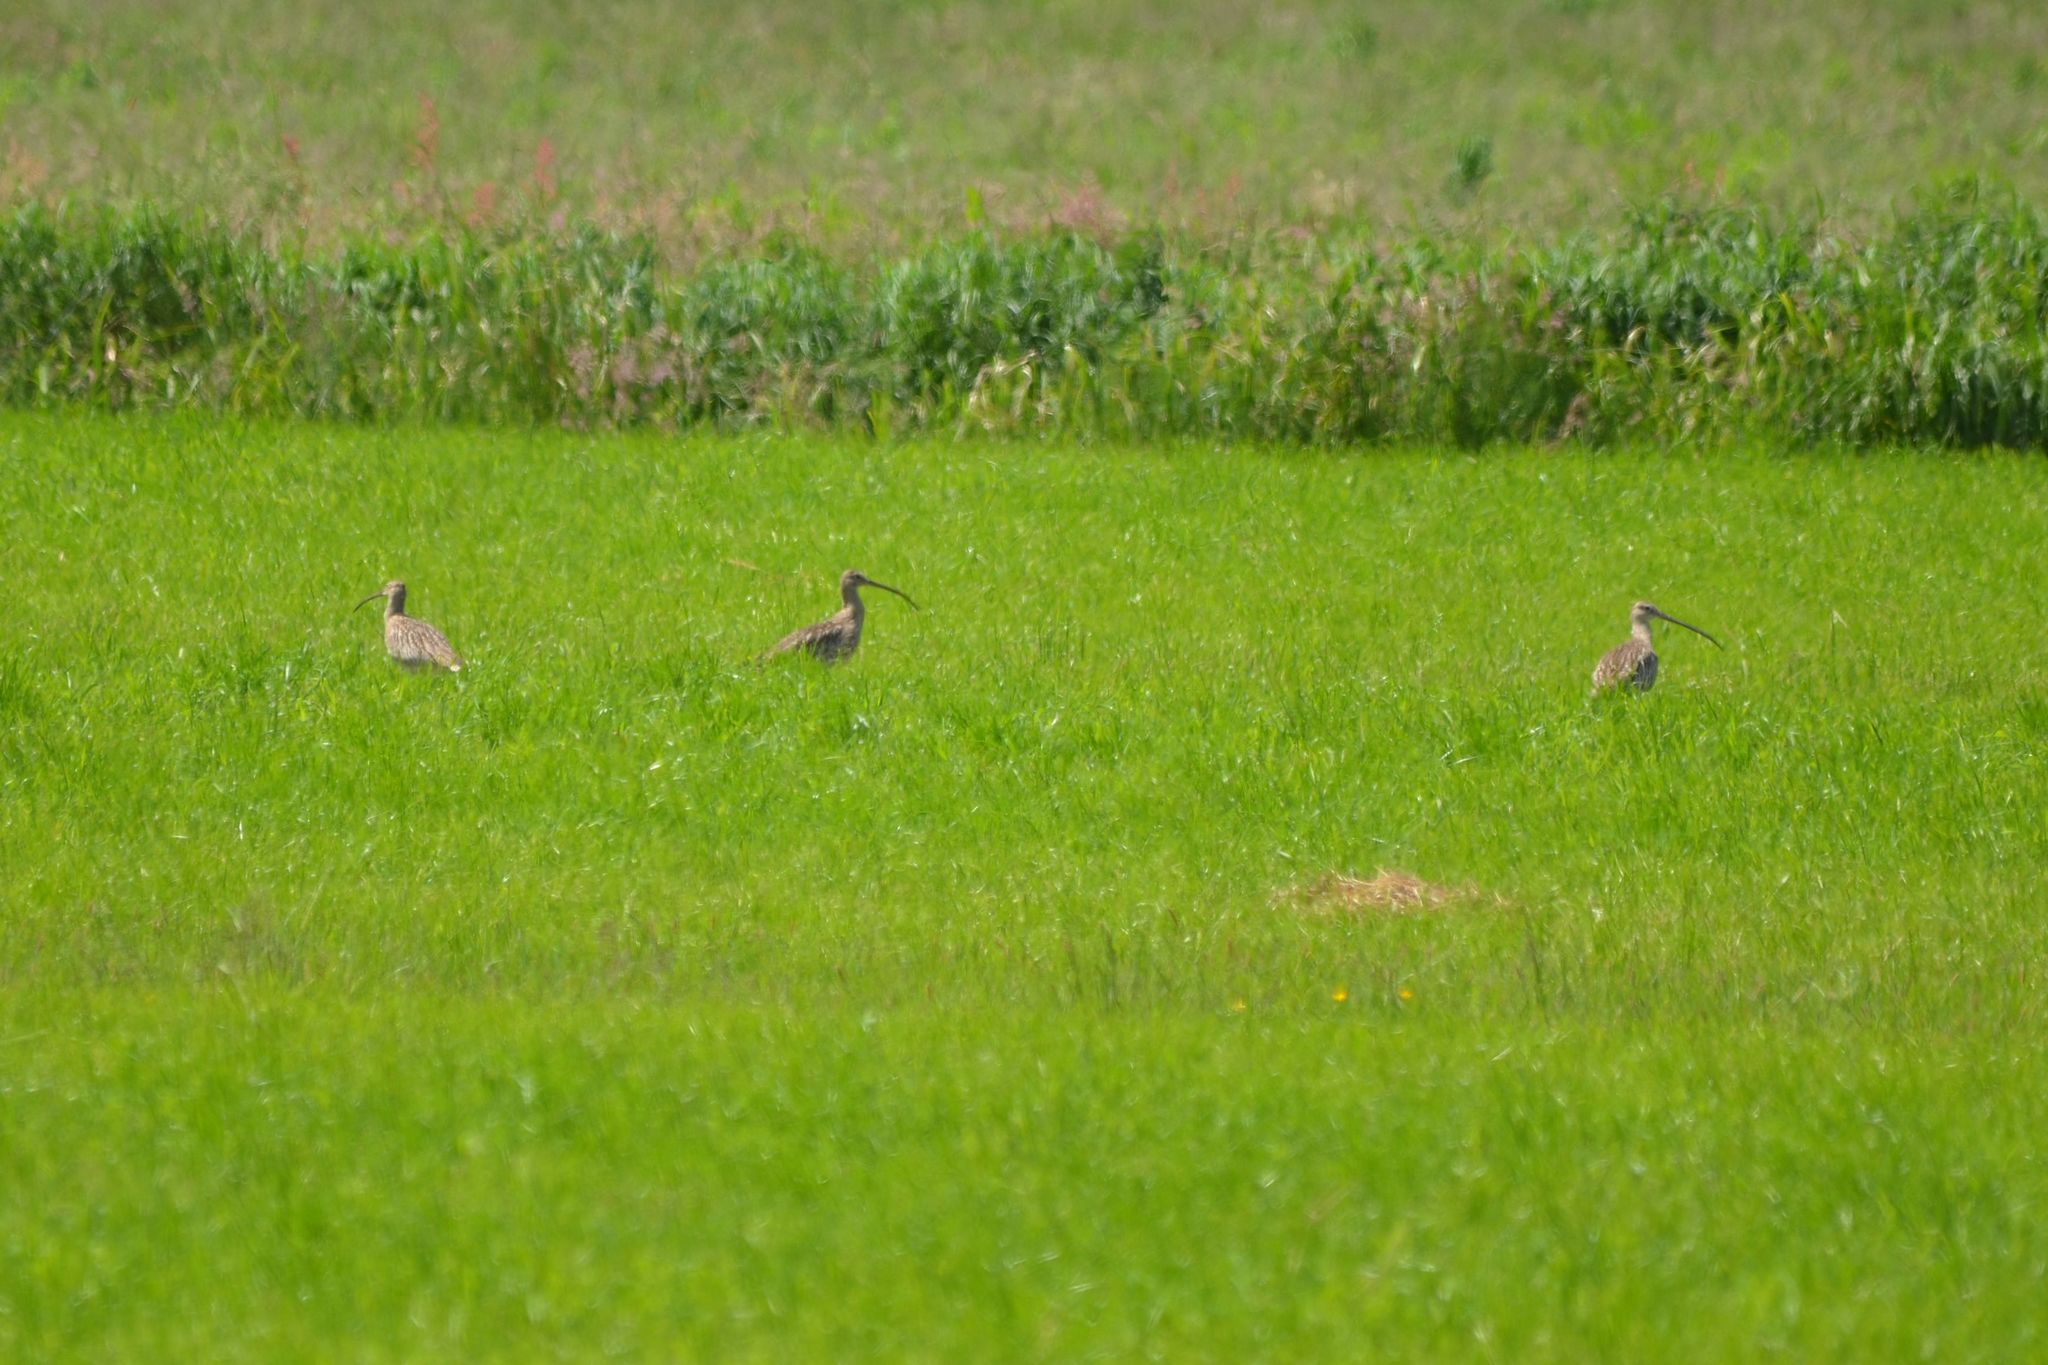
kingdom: Animalia
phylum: Chordata
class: Aves
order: Charadriiformes
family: Scolopacidae
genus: Numenius
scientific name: Numenius arquata
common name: Eurasian curlew
